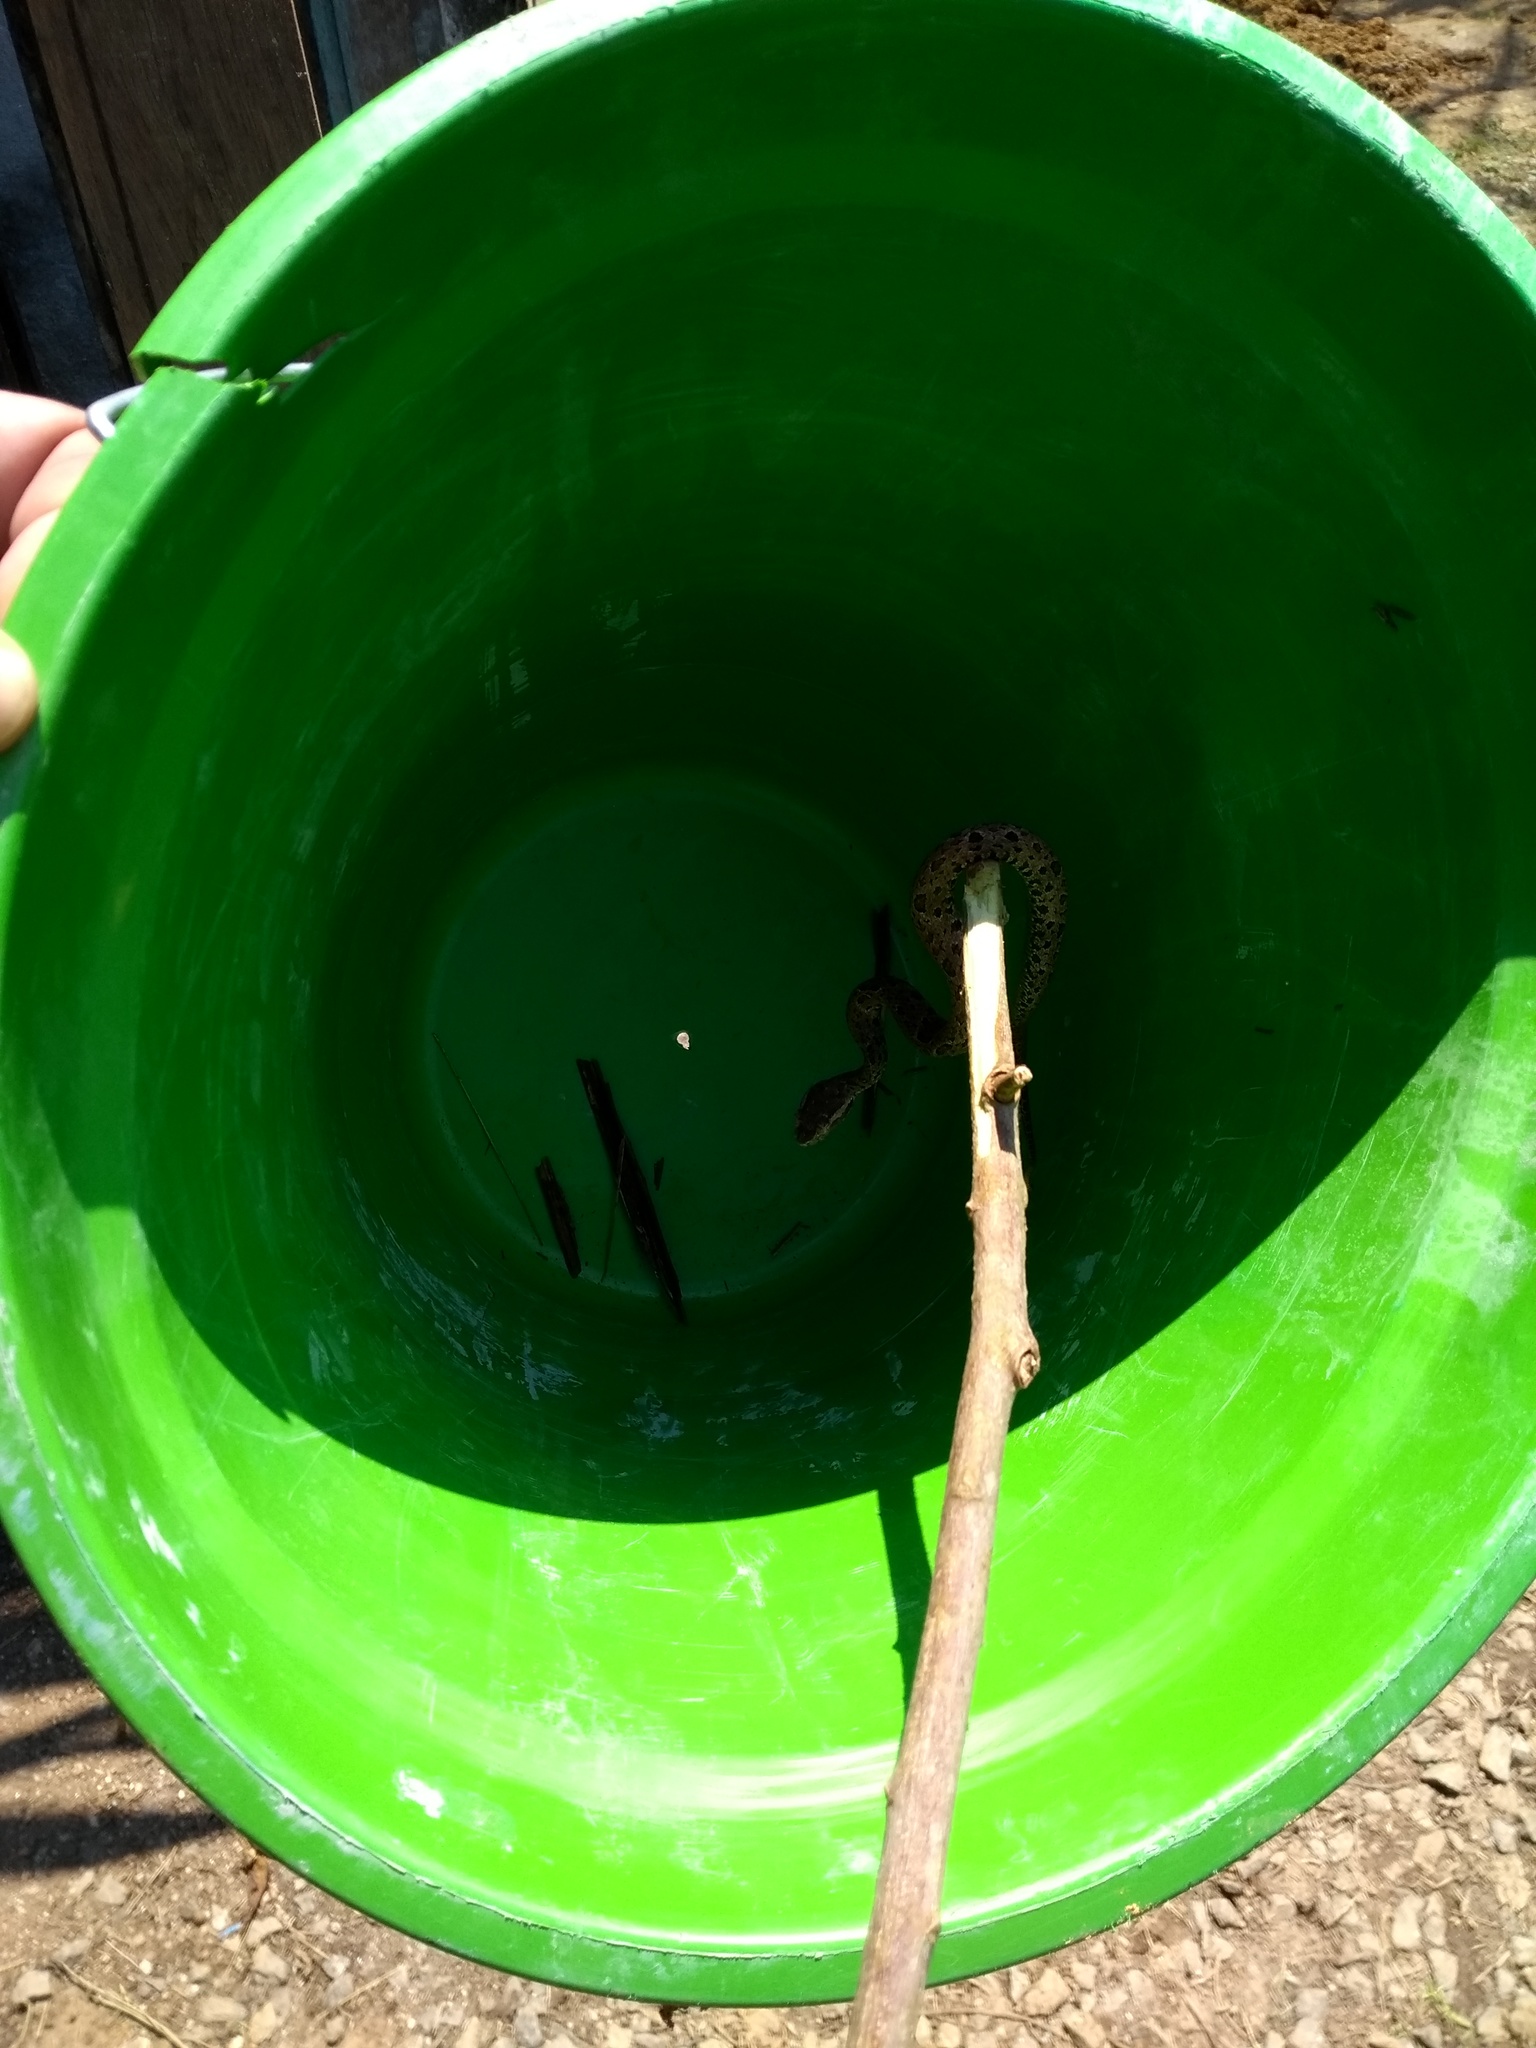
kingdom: Animalia
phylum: Chordata
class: Squamata
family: Viperidae
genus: Bothrops
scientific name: Bothrops jararacussu
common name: Jararacussu
